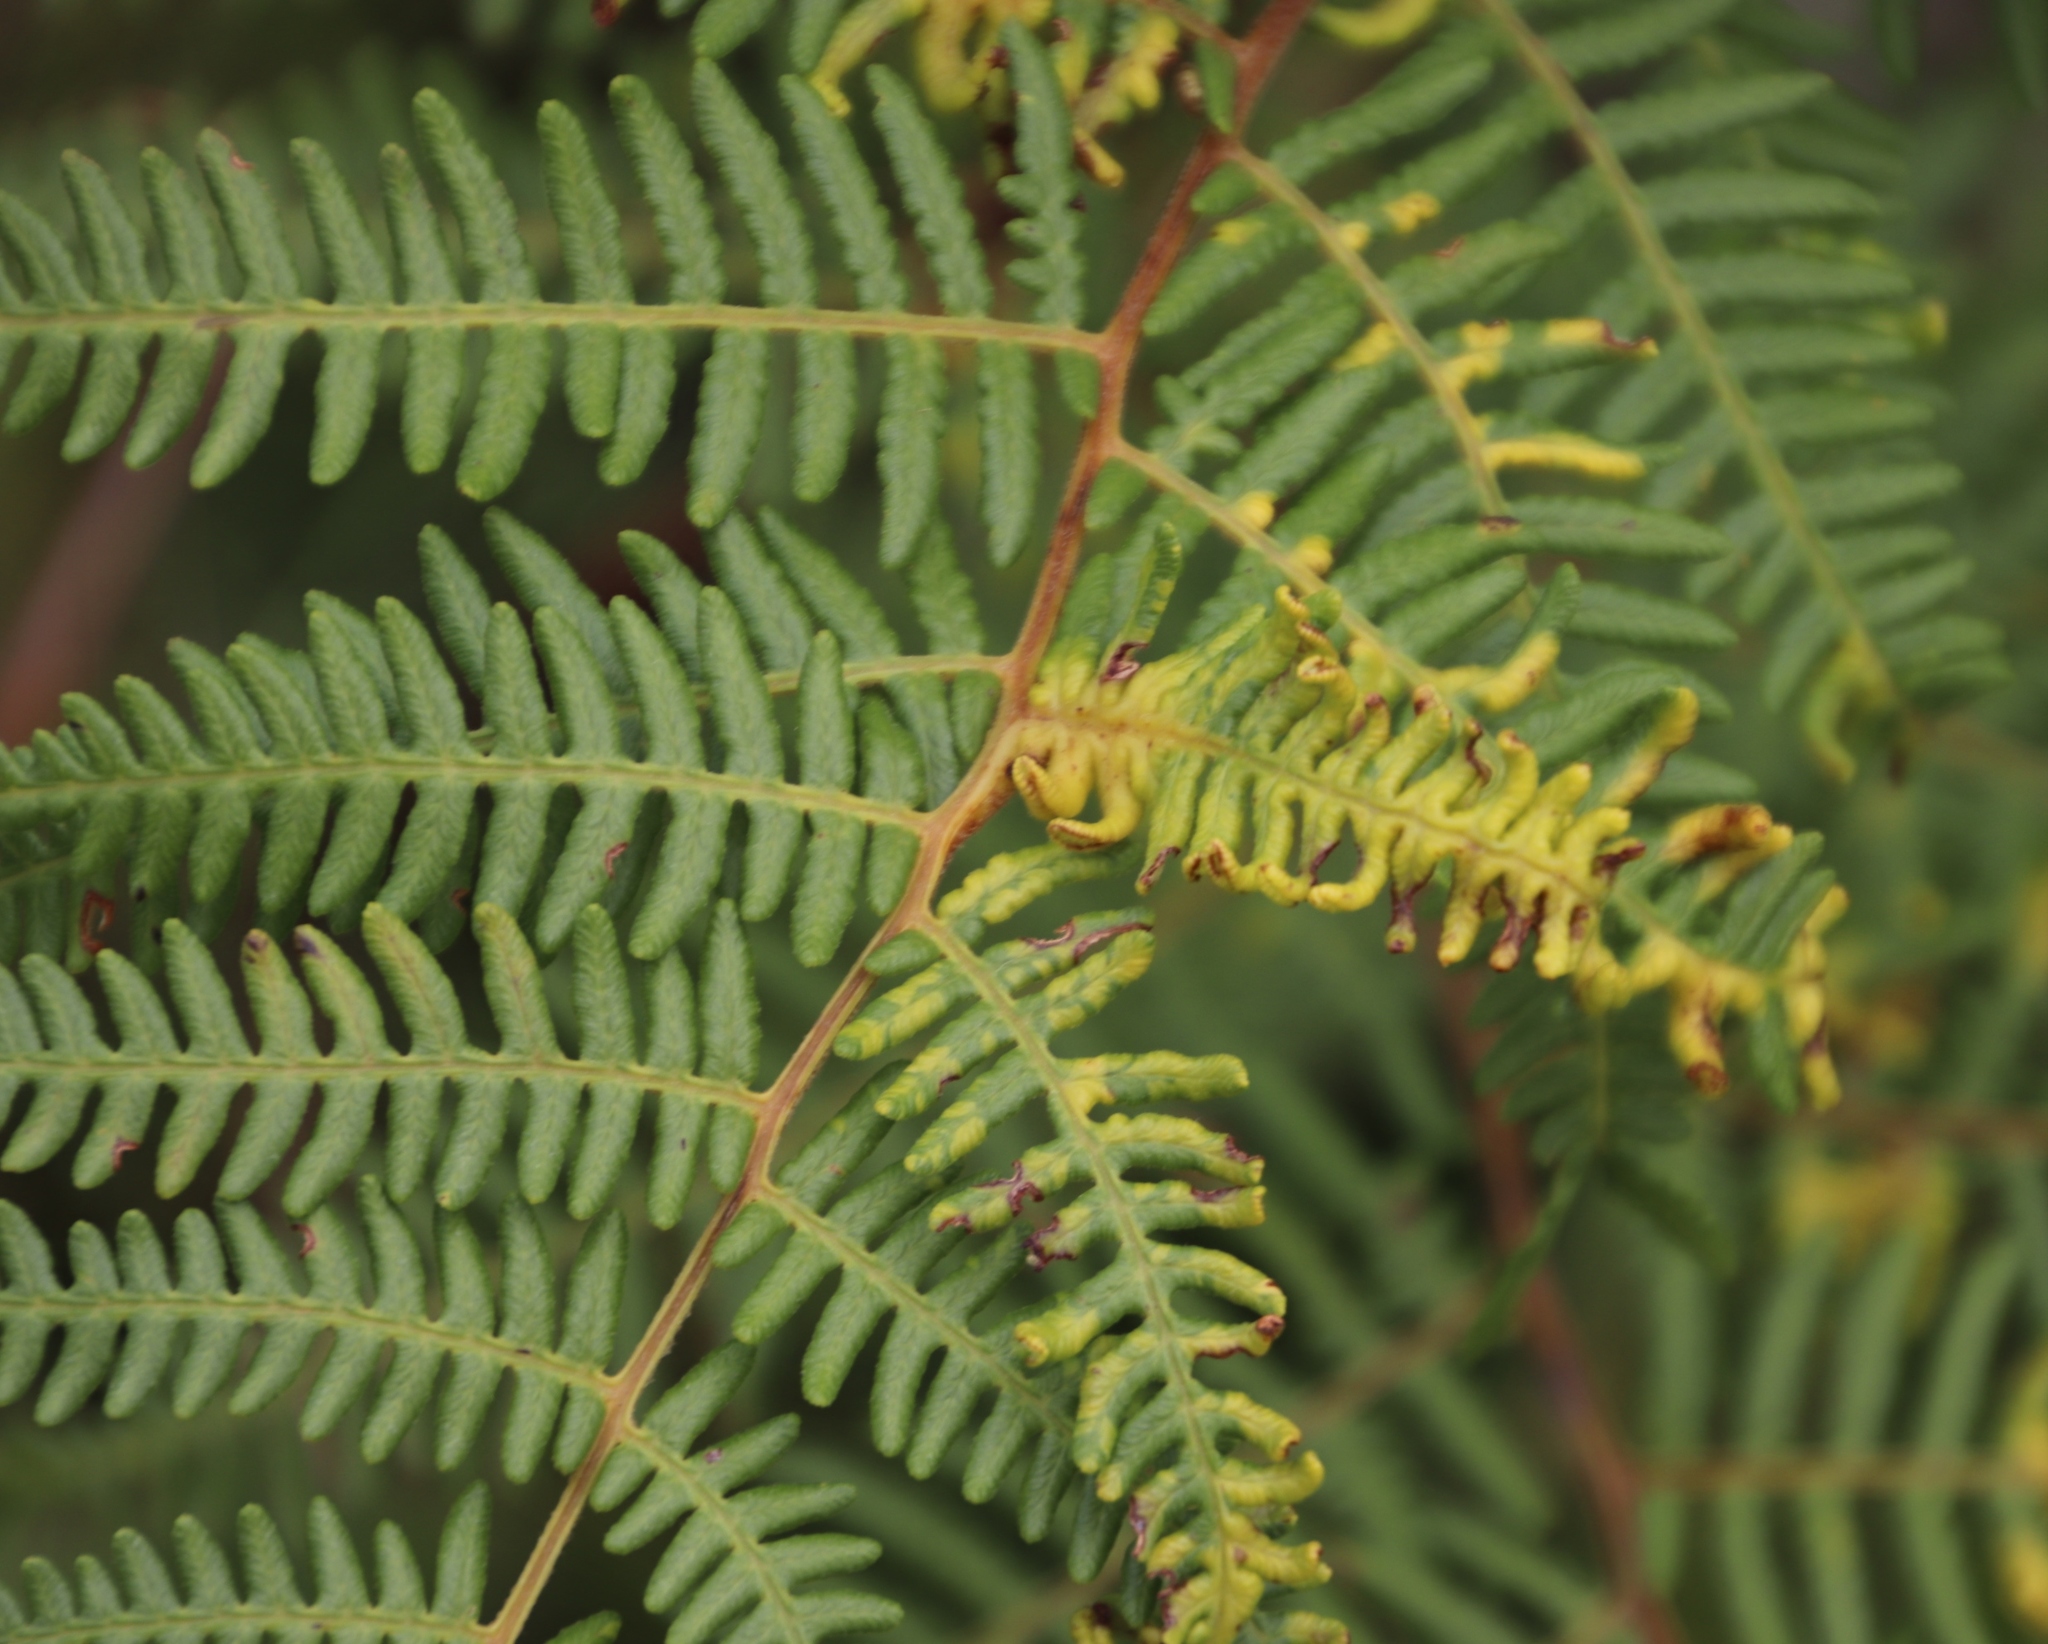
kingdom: Plantae
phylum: Tracheophyta
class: Polypodiopsida
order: Polypodiales
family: Dennstaedtiaceae
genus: Pteridium
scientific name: Pteridium aquilinum
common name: Bracken
